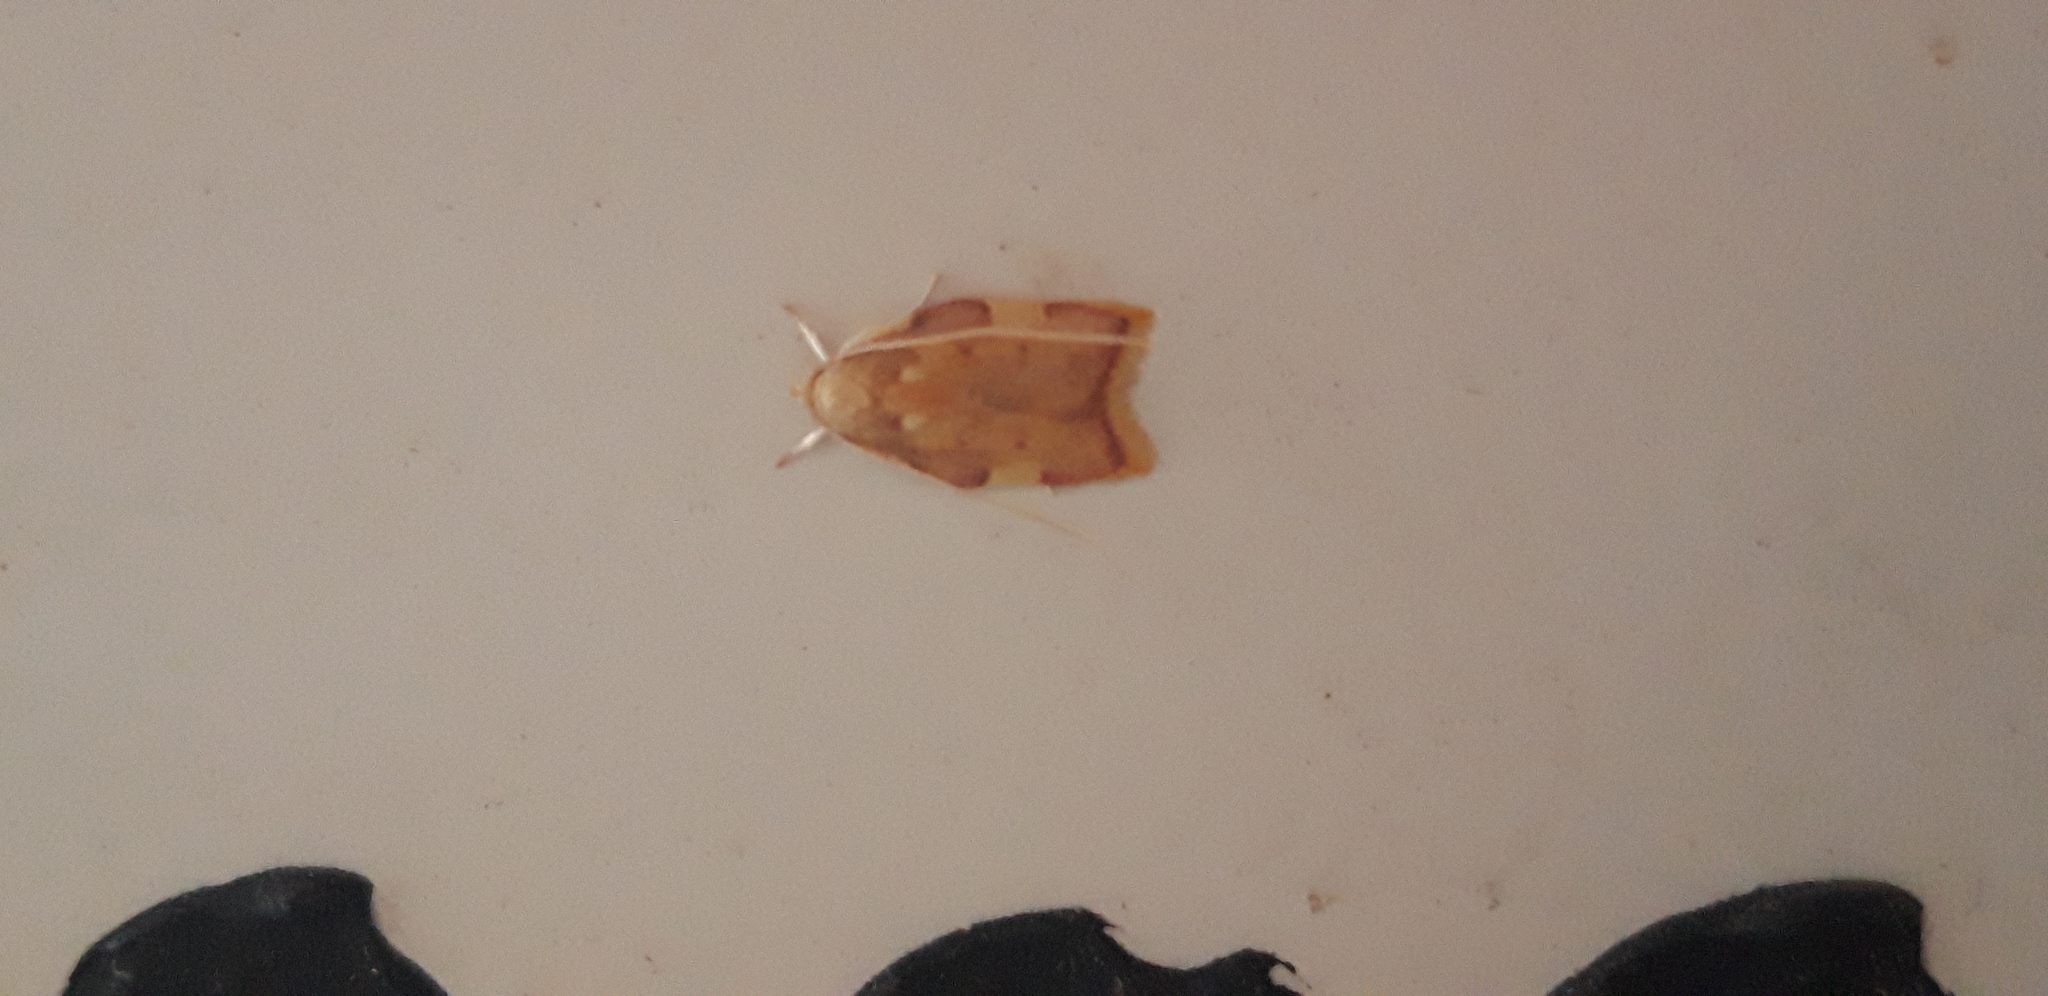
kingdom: Animalia
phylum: Arthropoda
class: Insecta
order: Lepidoptera
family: Peleopodidae
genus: Carcina
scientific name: Carcina quercana
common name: Moth
